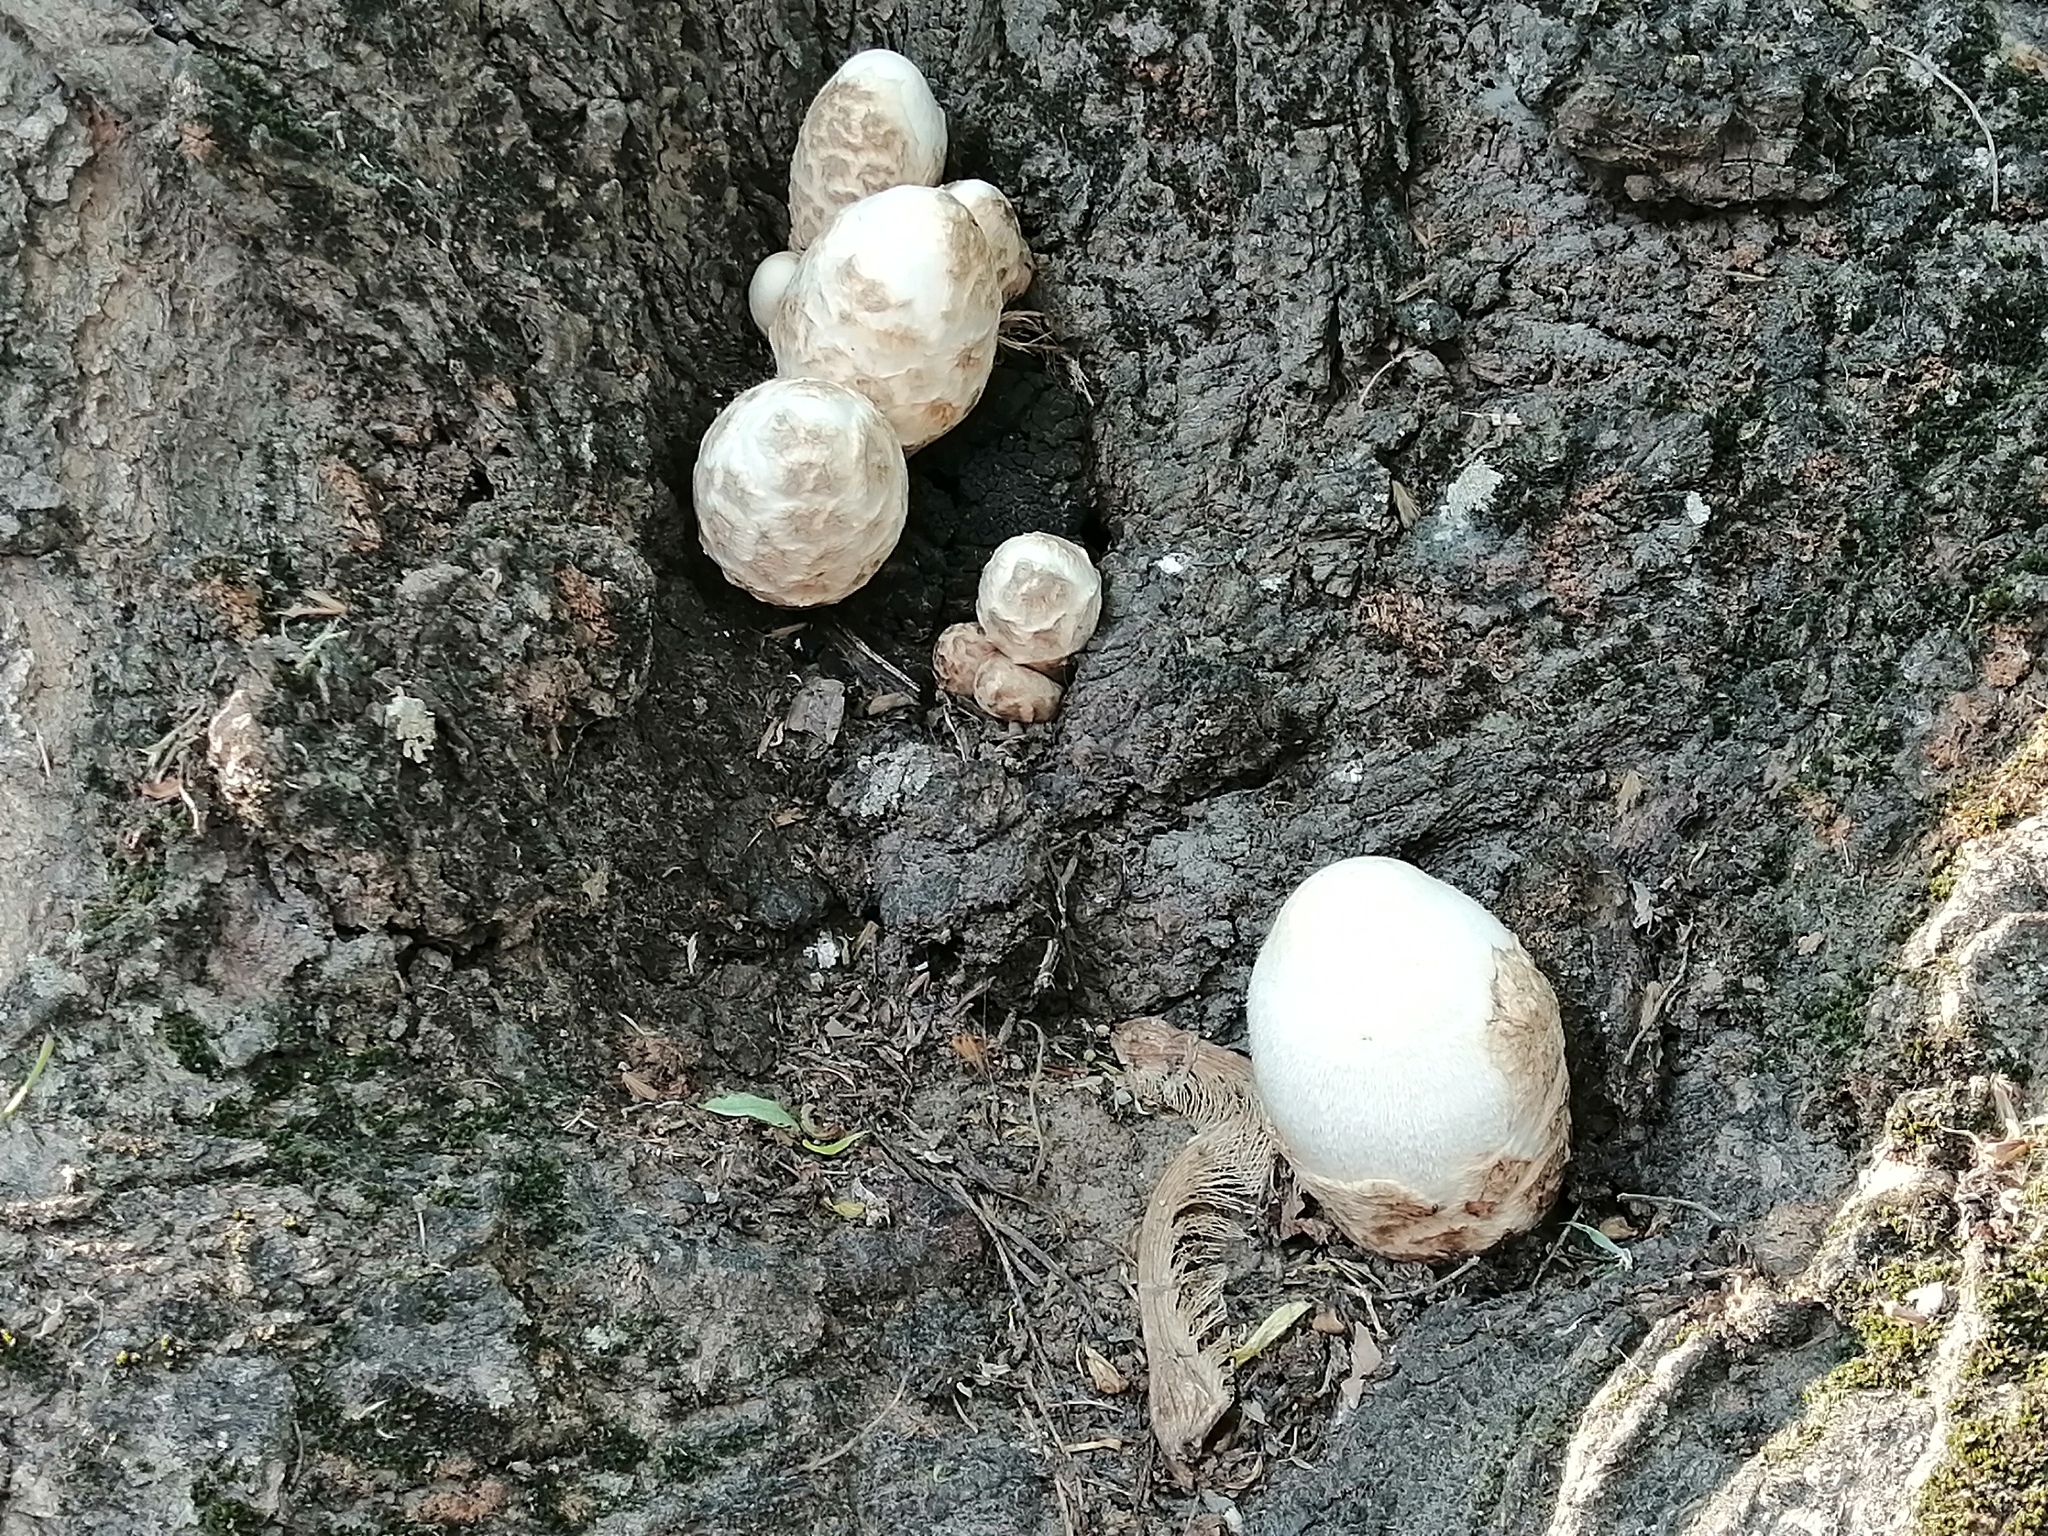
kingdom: Fungi
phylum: Basidiomycota
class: Agaricomycetes
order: Agaricales
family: Pluteaceae
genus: Volvariella
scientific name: Volvariella bombycina
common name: Silky rosegill
